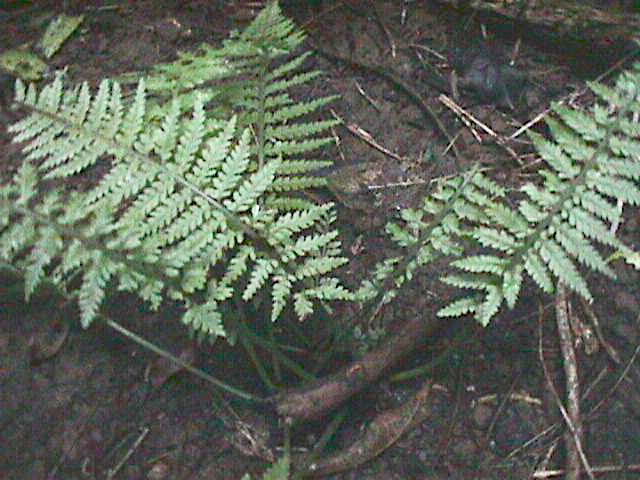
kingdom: Plantae
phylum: Tracheophyta
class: Polypodiopsida
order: Polypodiales
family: Aspleniaceae
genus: Asplenium
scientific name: Asplenium bulbiferum
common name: Mother fern
